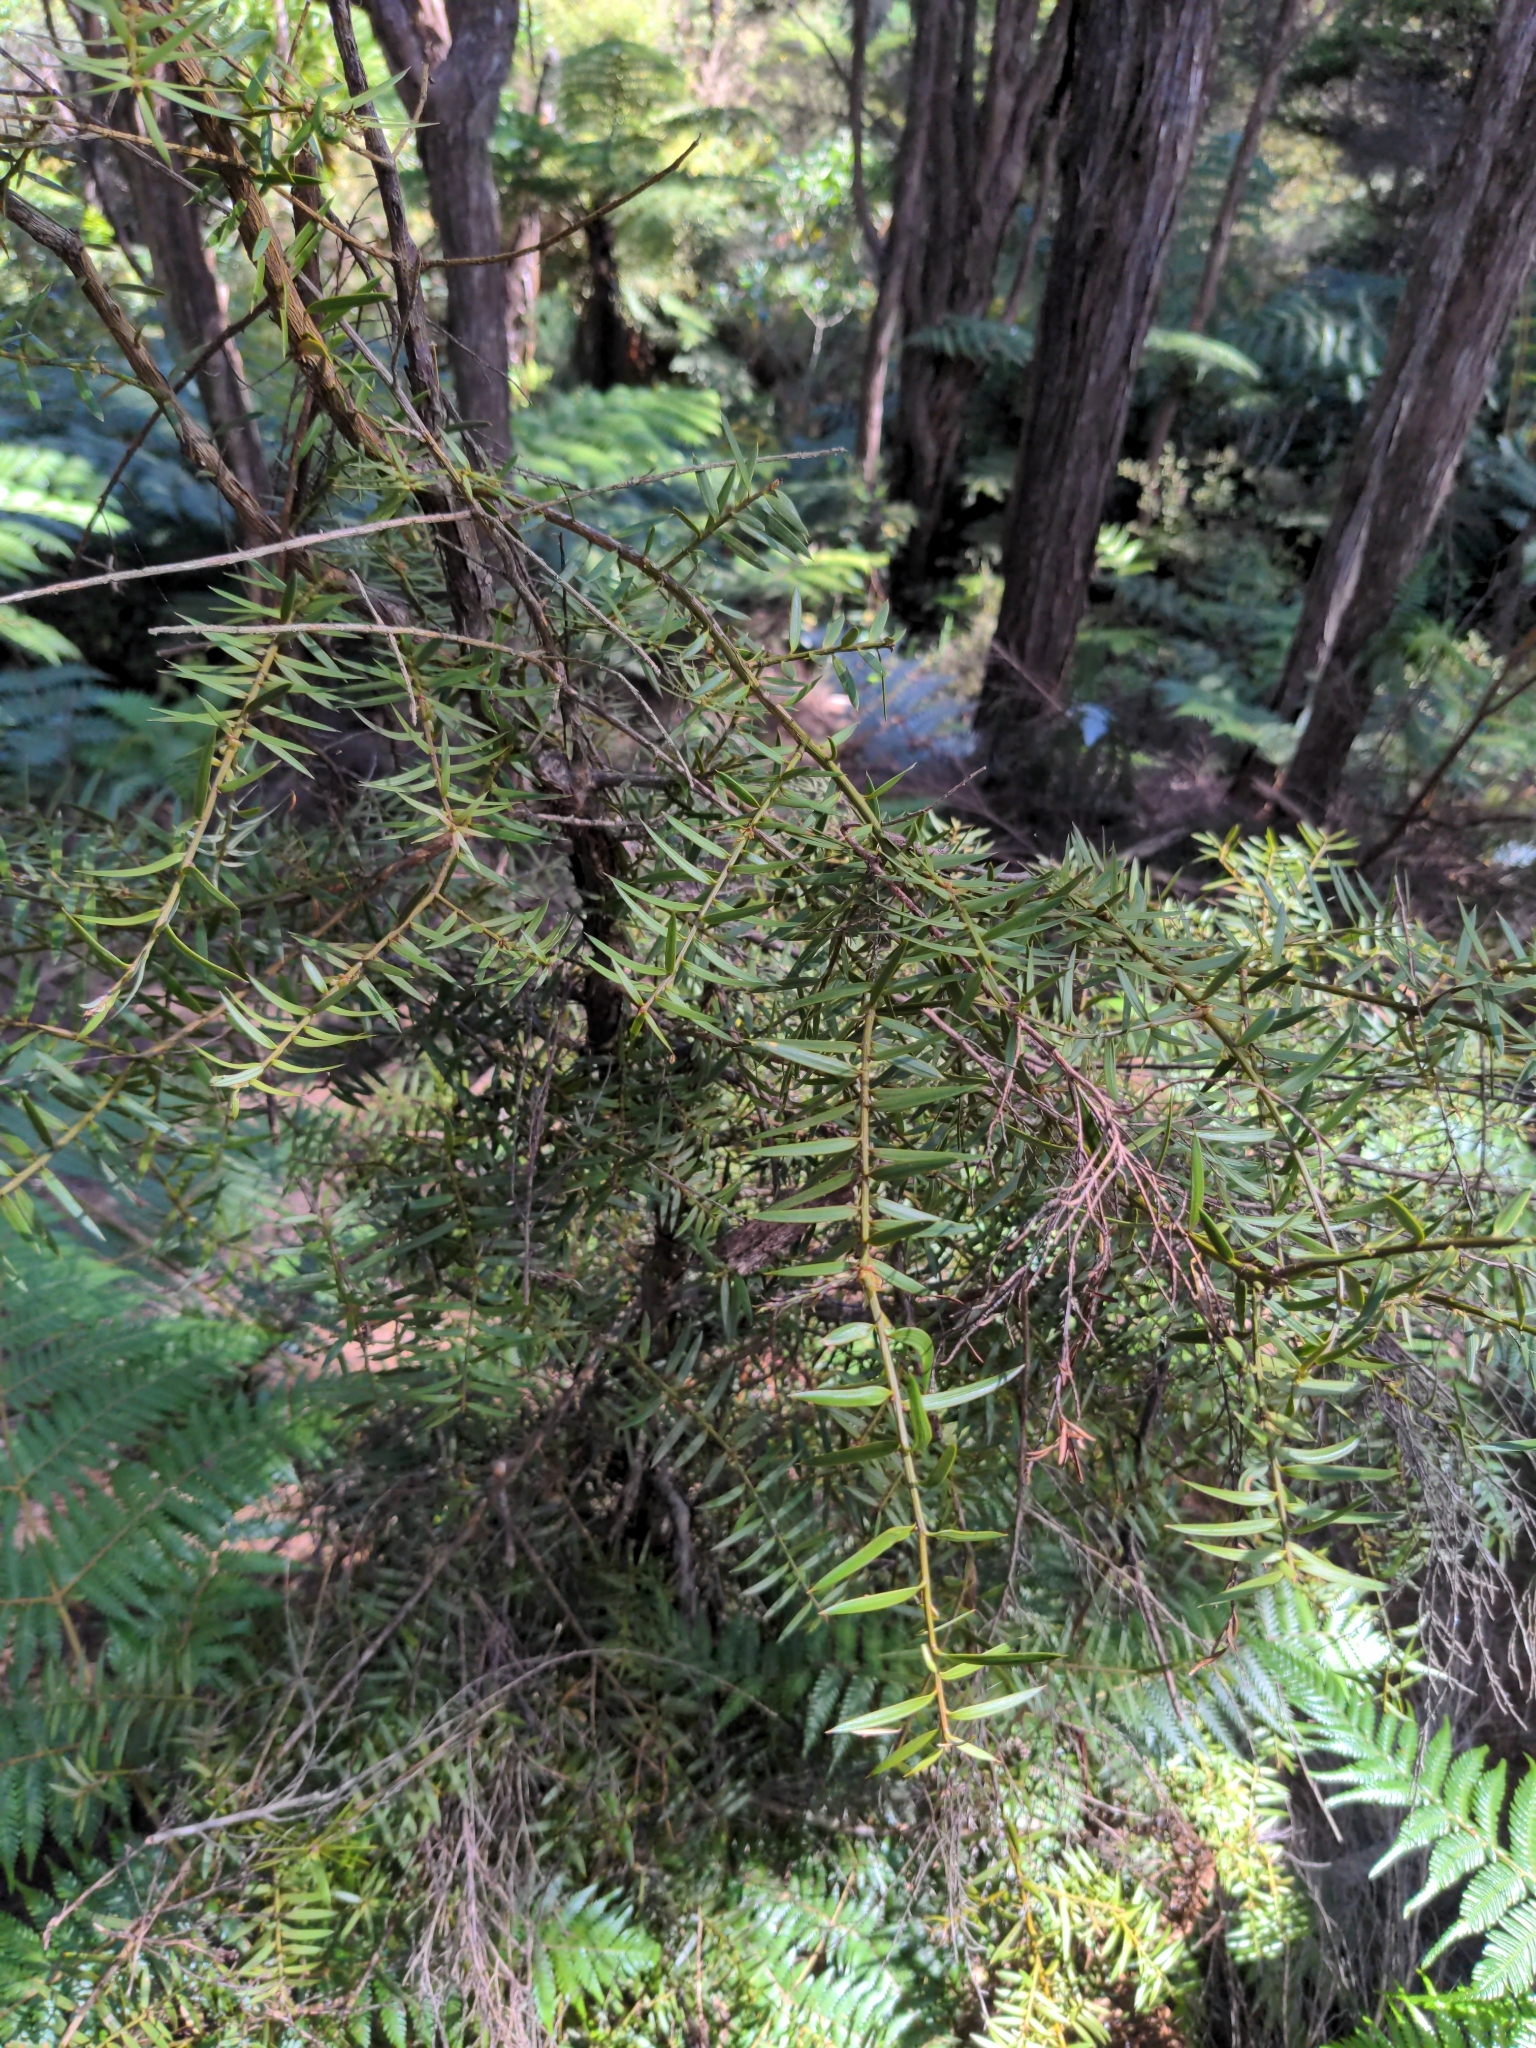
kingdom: Plantae
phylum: Tracheophyta
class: Pinopsida
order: Pinales
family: Podocarpaceae
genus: Podocarpus
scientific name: Podocarpus totara
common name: Totara
